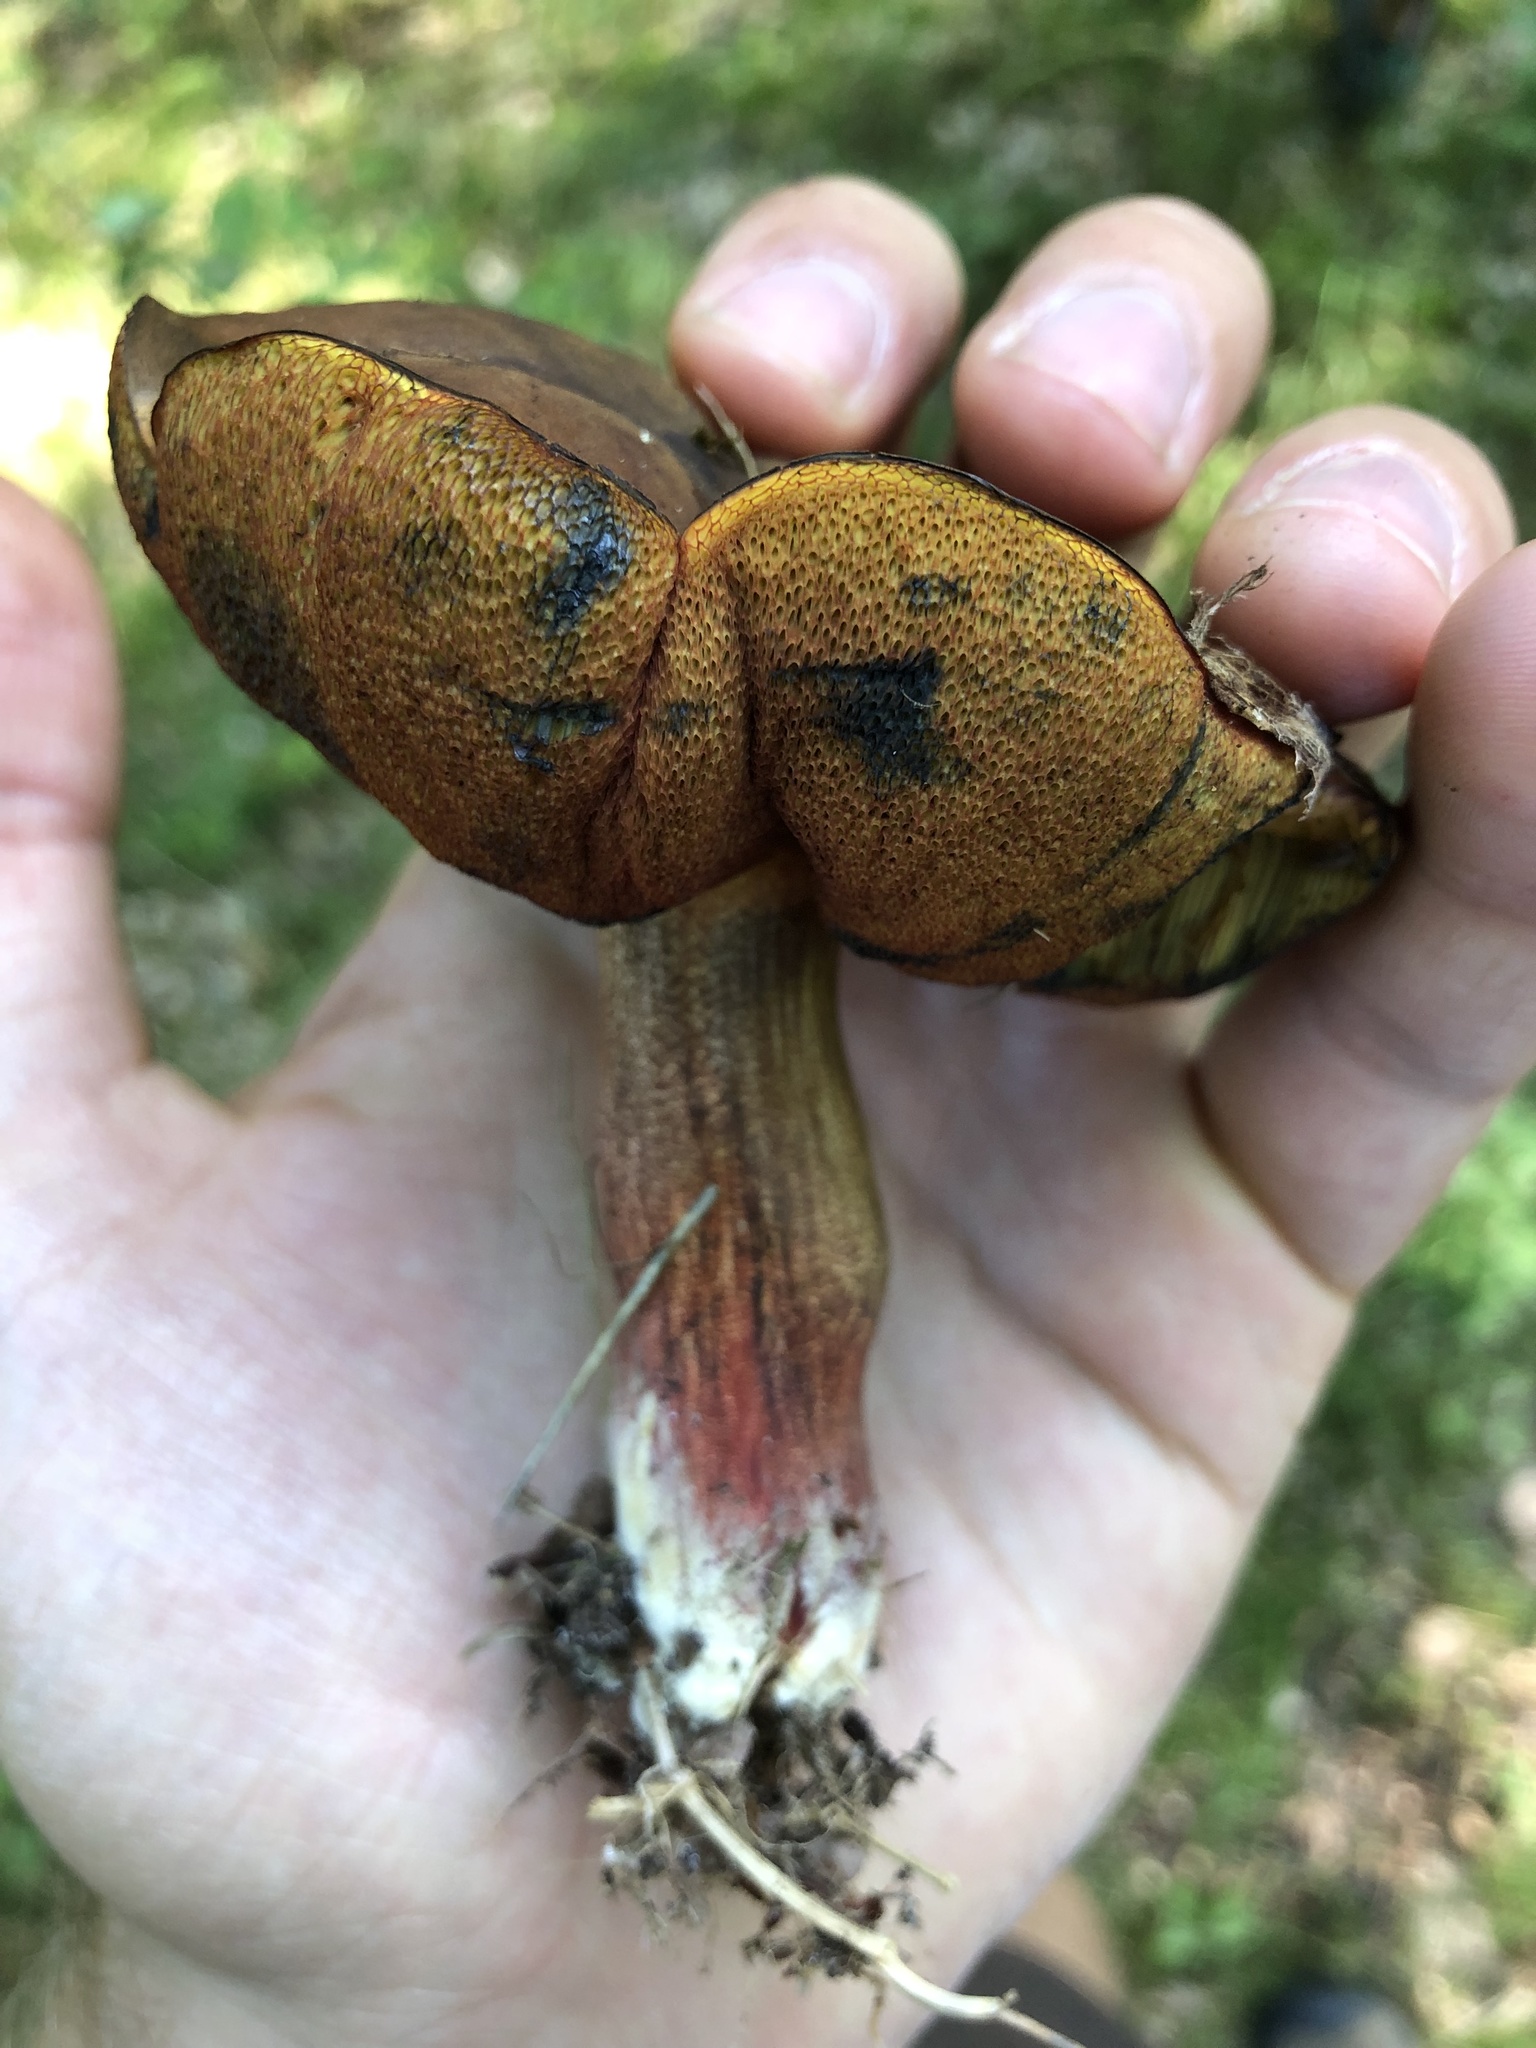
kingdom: Fungi
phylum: Basidiomycota
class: Agaricomycetes
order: Boletales
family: Boletaceae
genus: Neoboletus
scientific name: Neoboletus luridiformis
